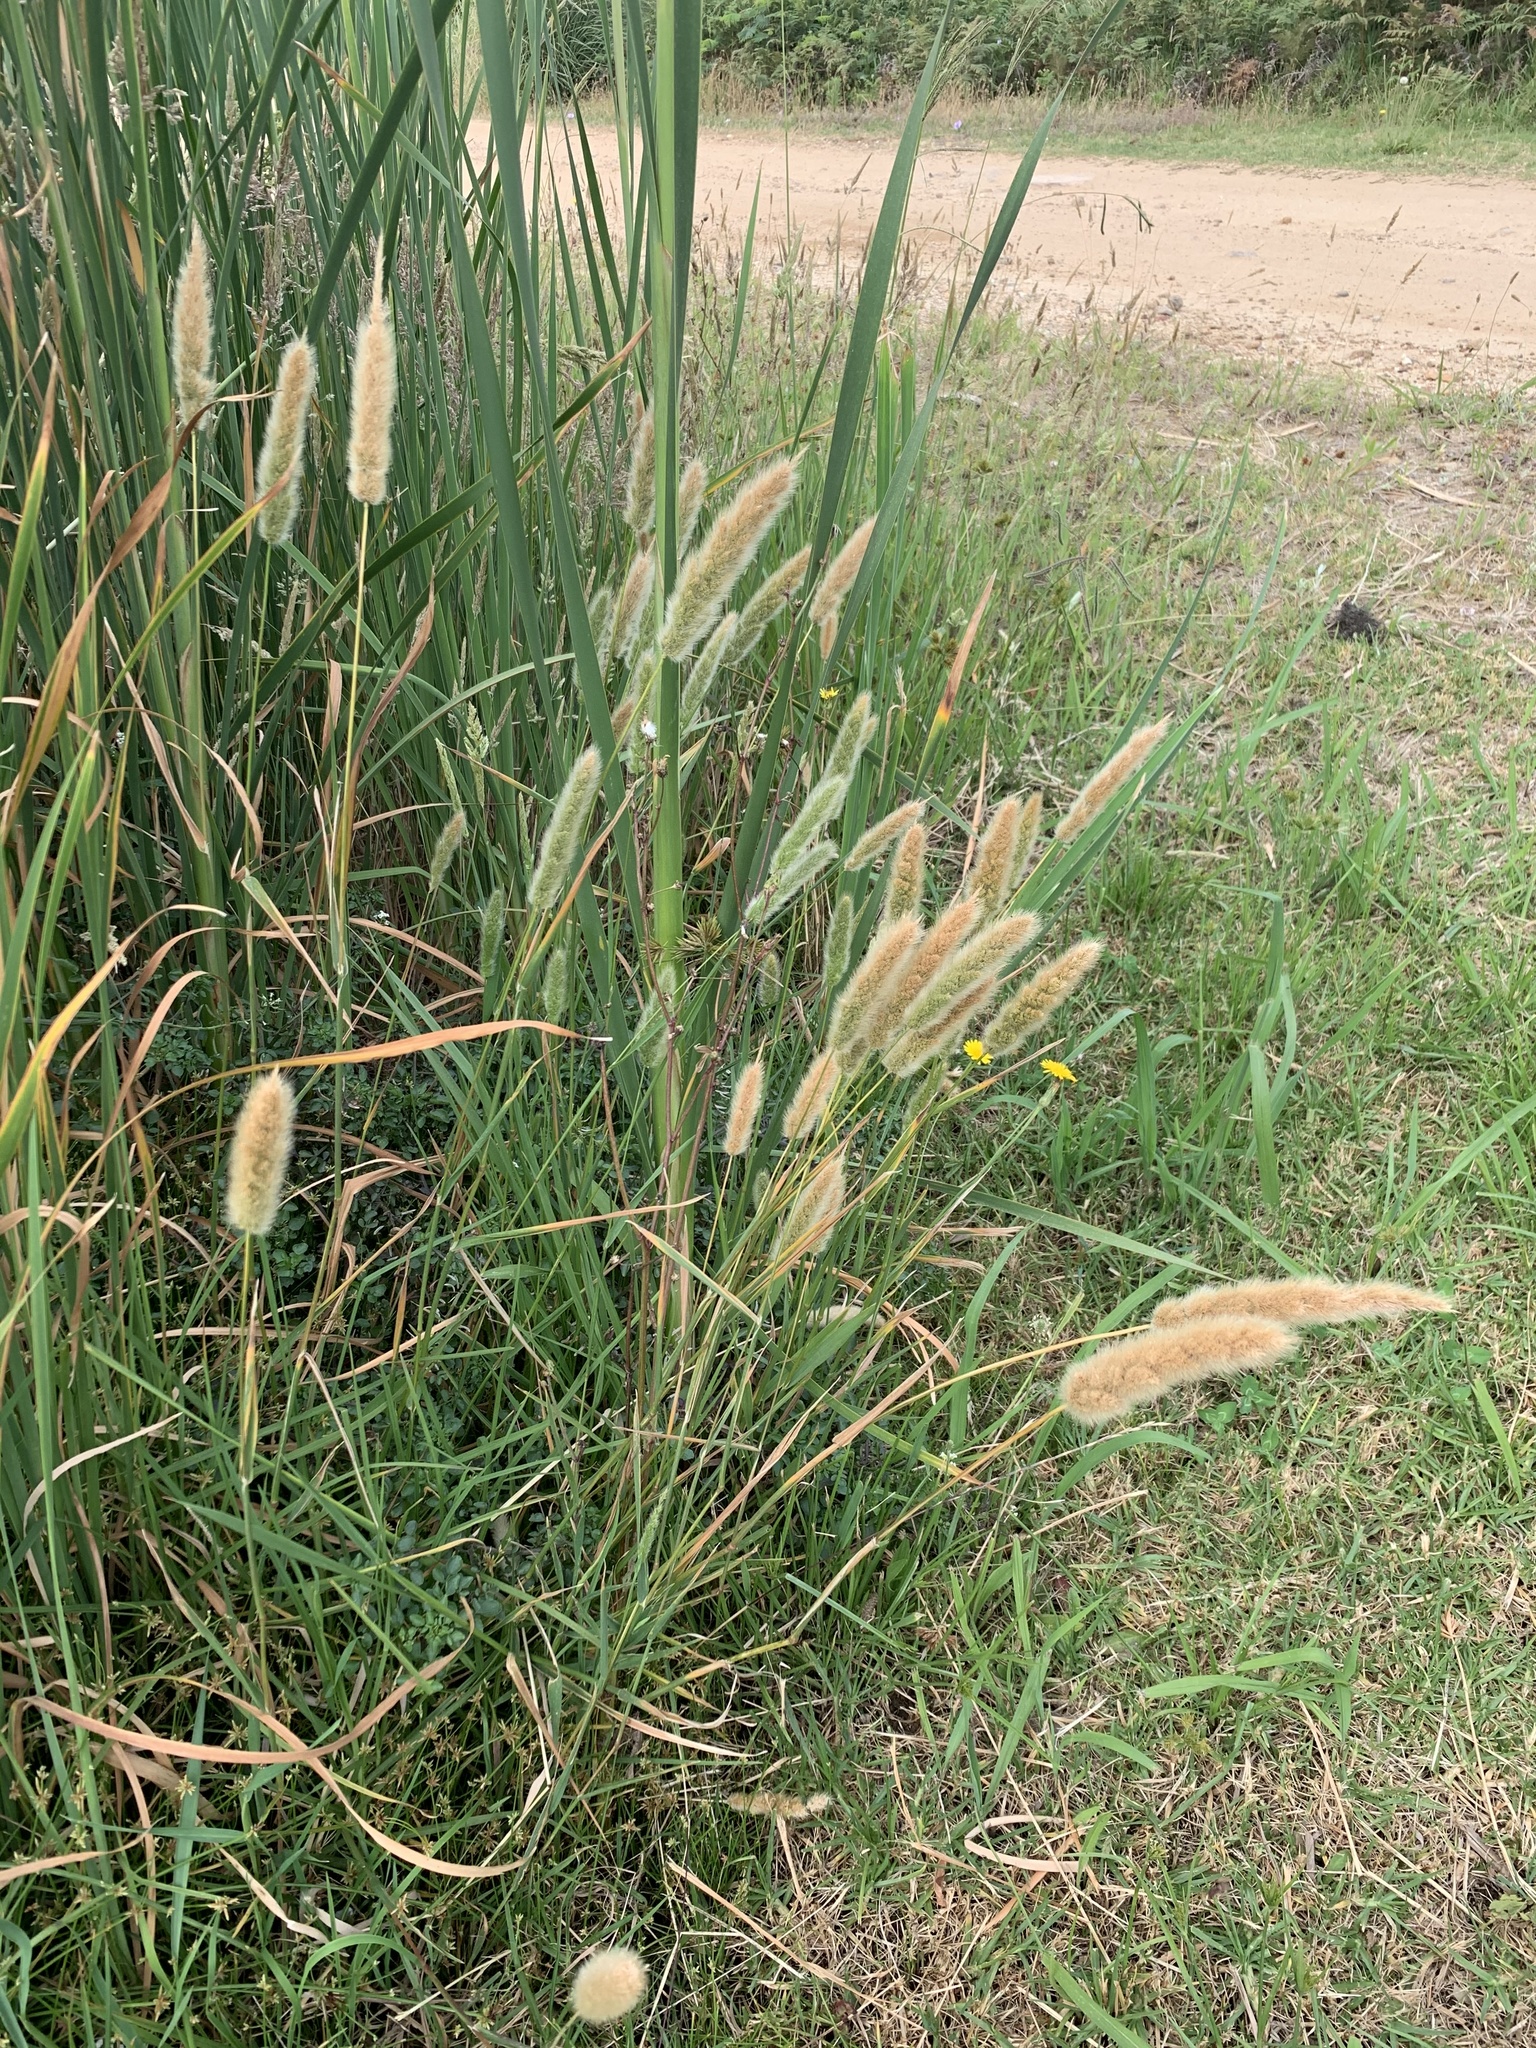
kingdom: Plantae
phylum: Tracheophyta
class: Liliopsida
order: Poales
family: Poaceae
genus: Polypogon
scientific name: Polypogon monspeliensis
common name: Annual rabbitsfoot grass
